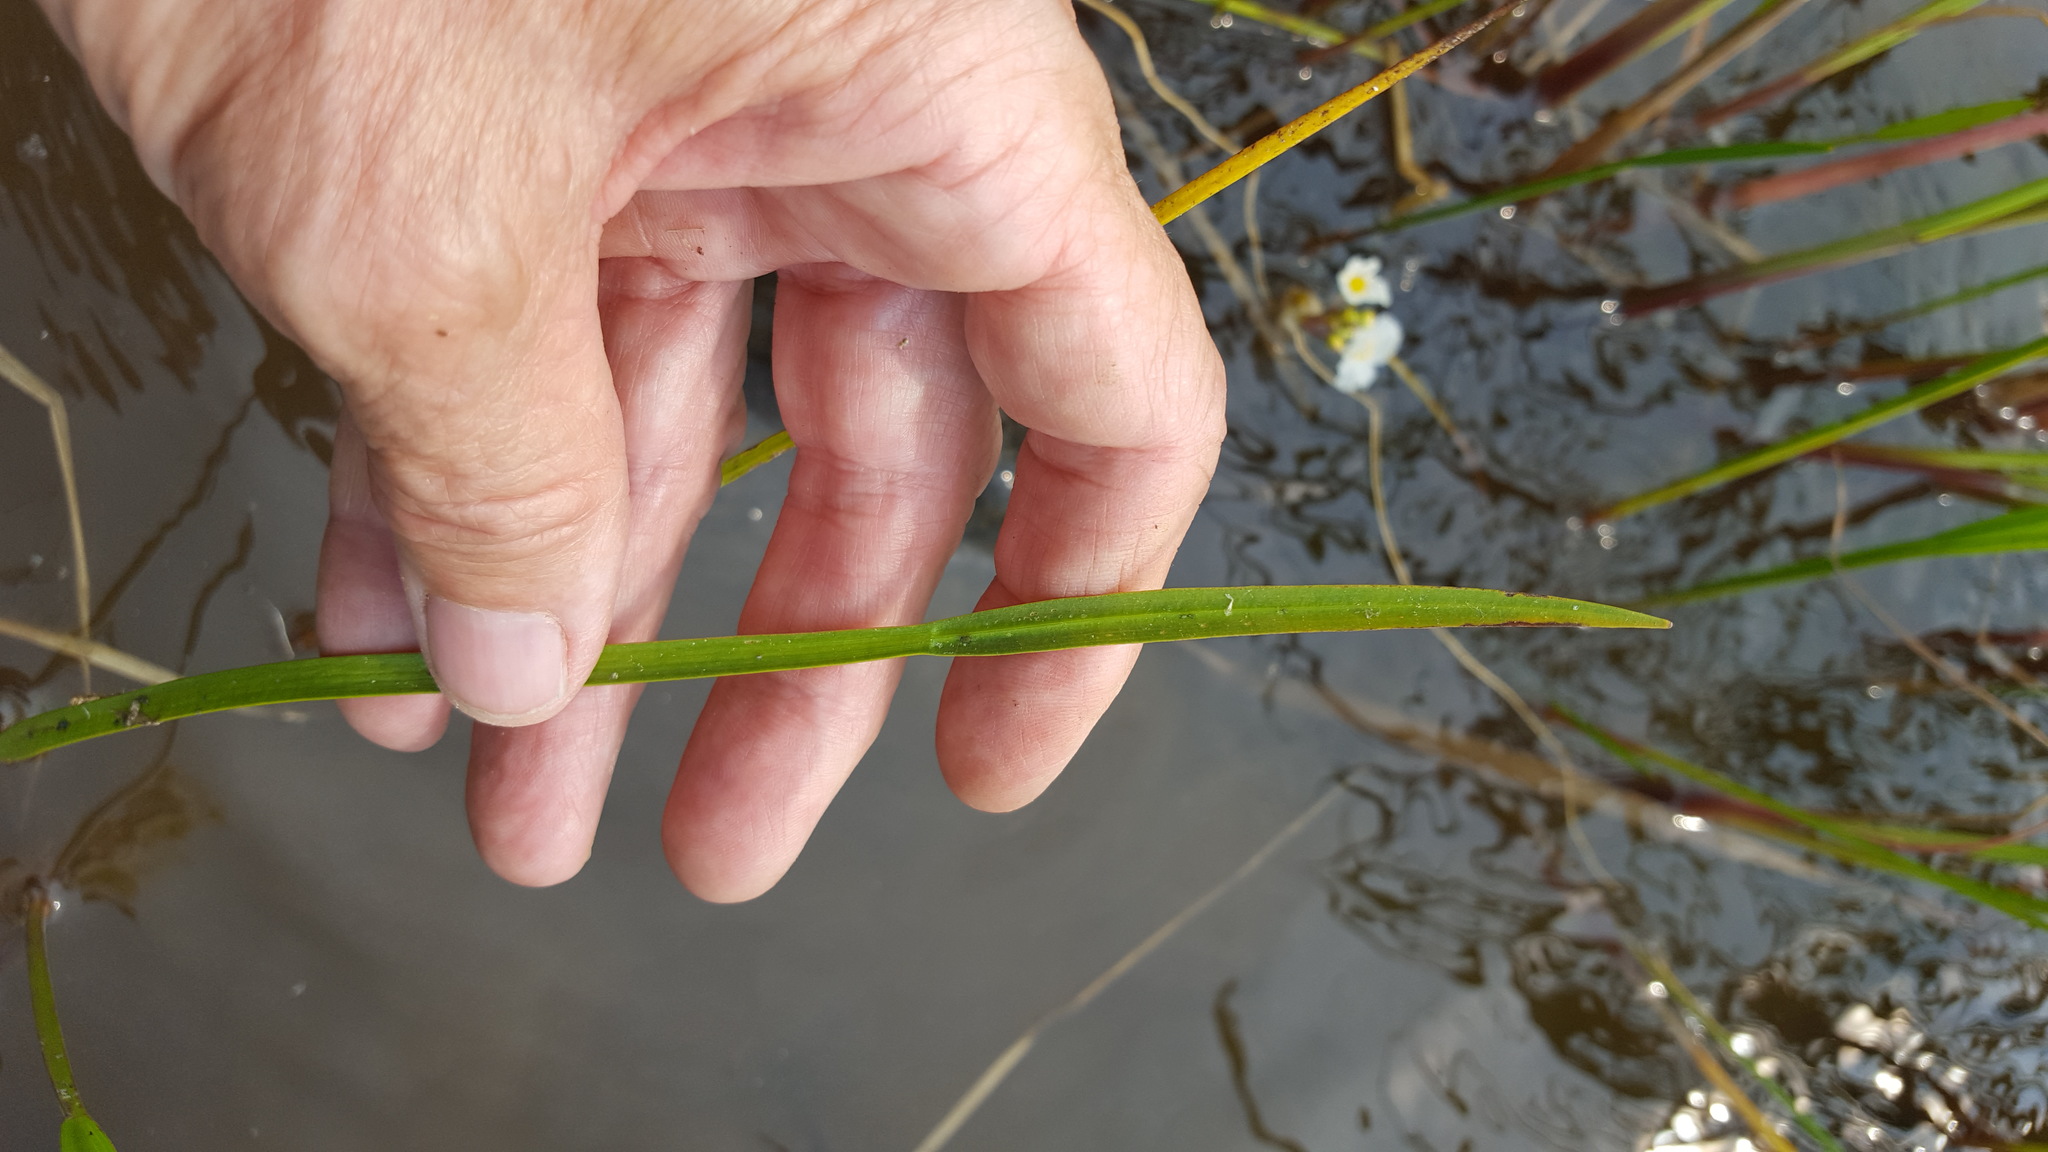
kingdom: Plantae
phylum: Tracheophyta
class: Liliopsida
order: Alismatales
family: Alismataceae
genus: Sagittaria
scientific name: Sagittaria rigida
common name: Canadian arrowhead
